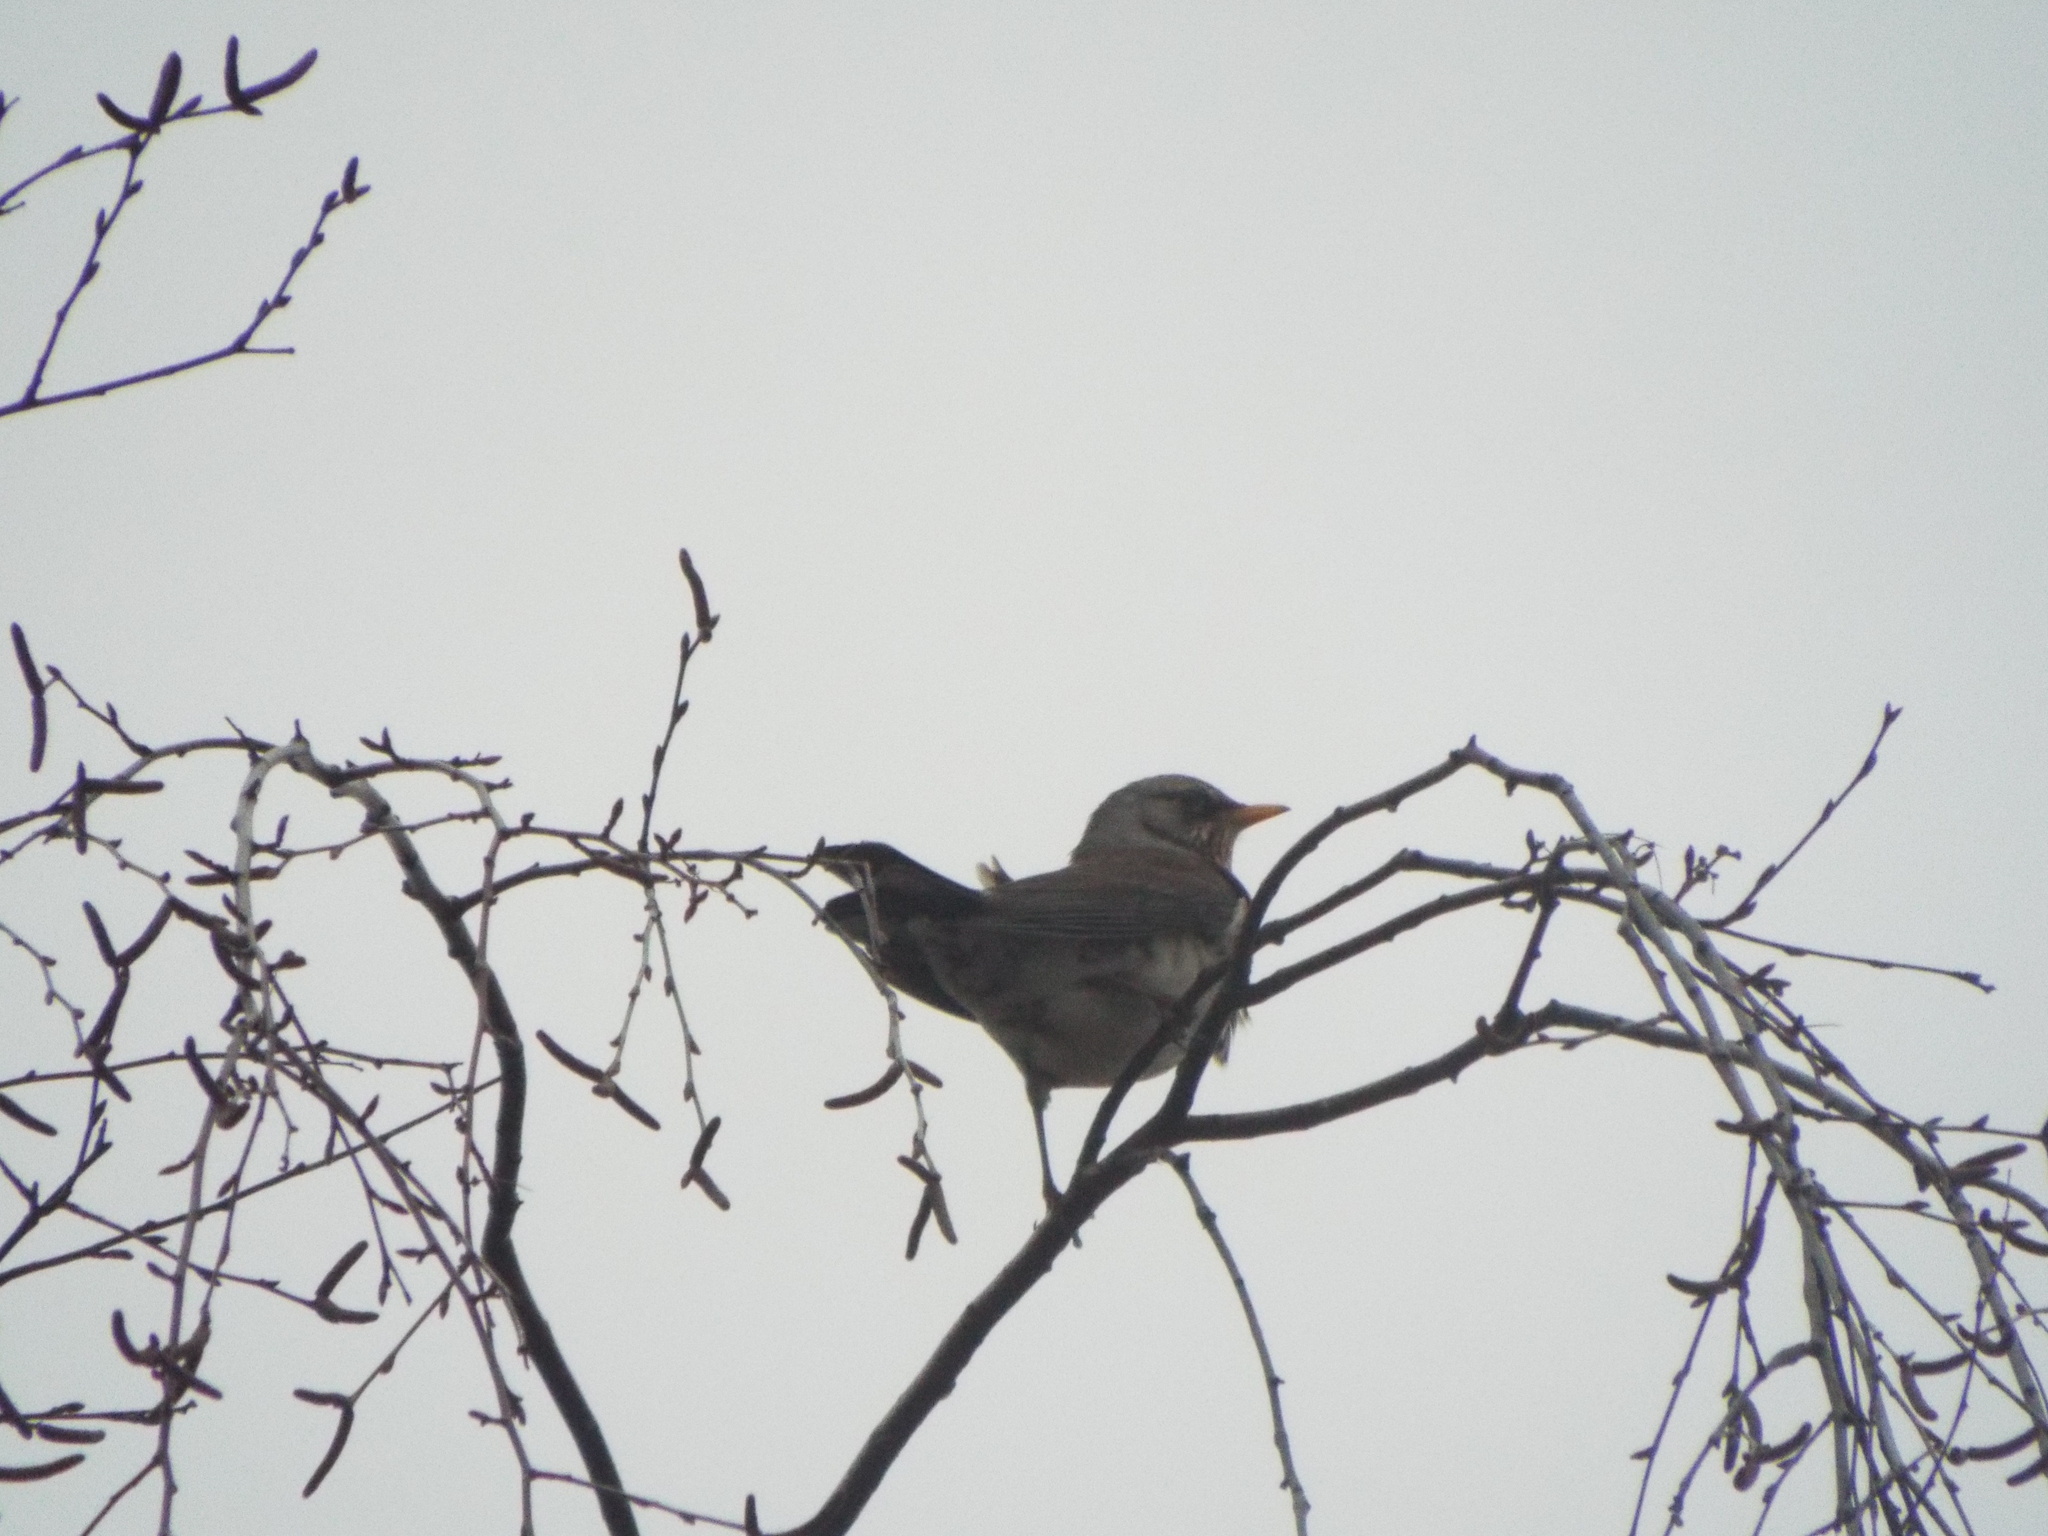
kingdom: Animalia
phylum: Chordata
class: Aves
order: Passeriformes
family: Turdidae
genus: Turdus
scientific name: Turdus pilaris
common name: Fieldfare
